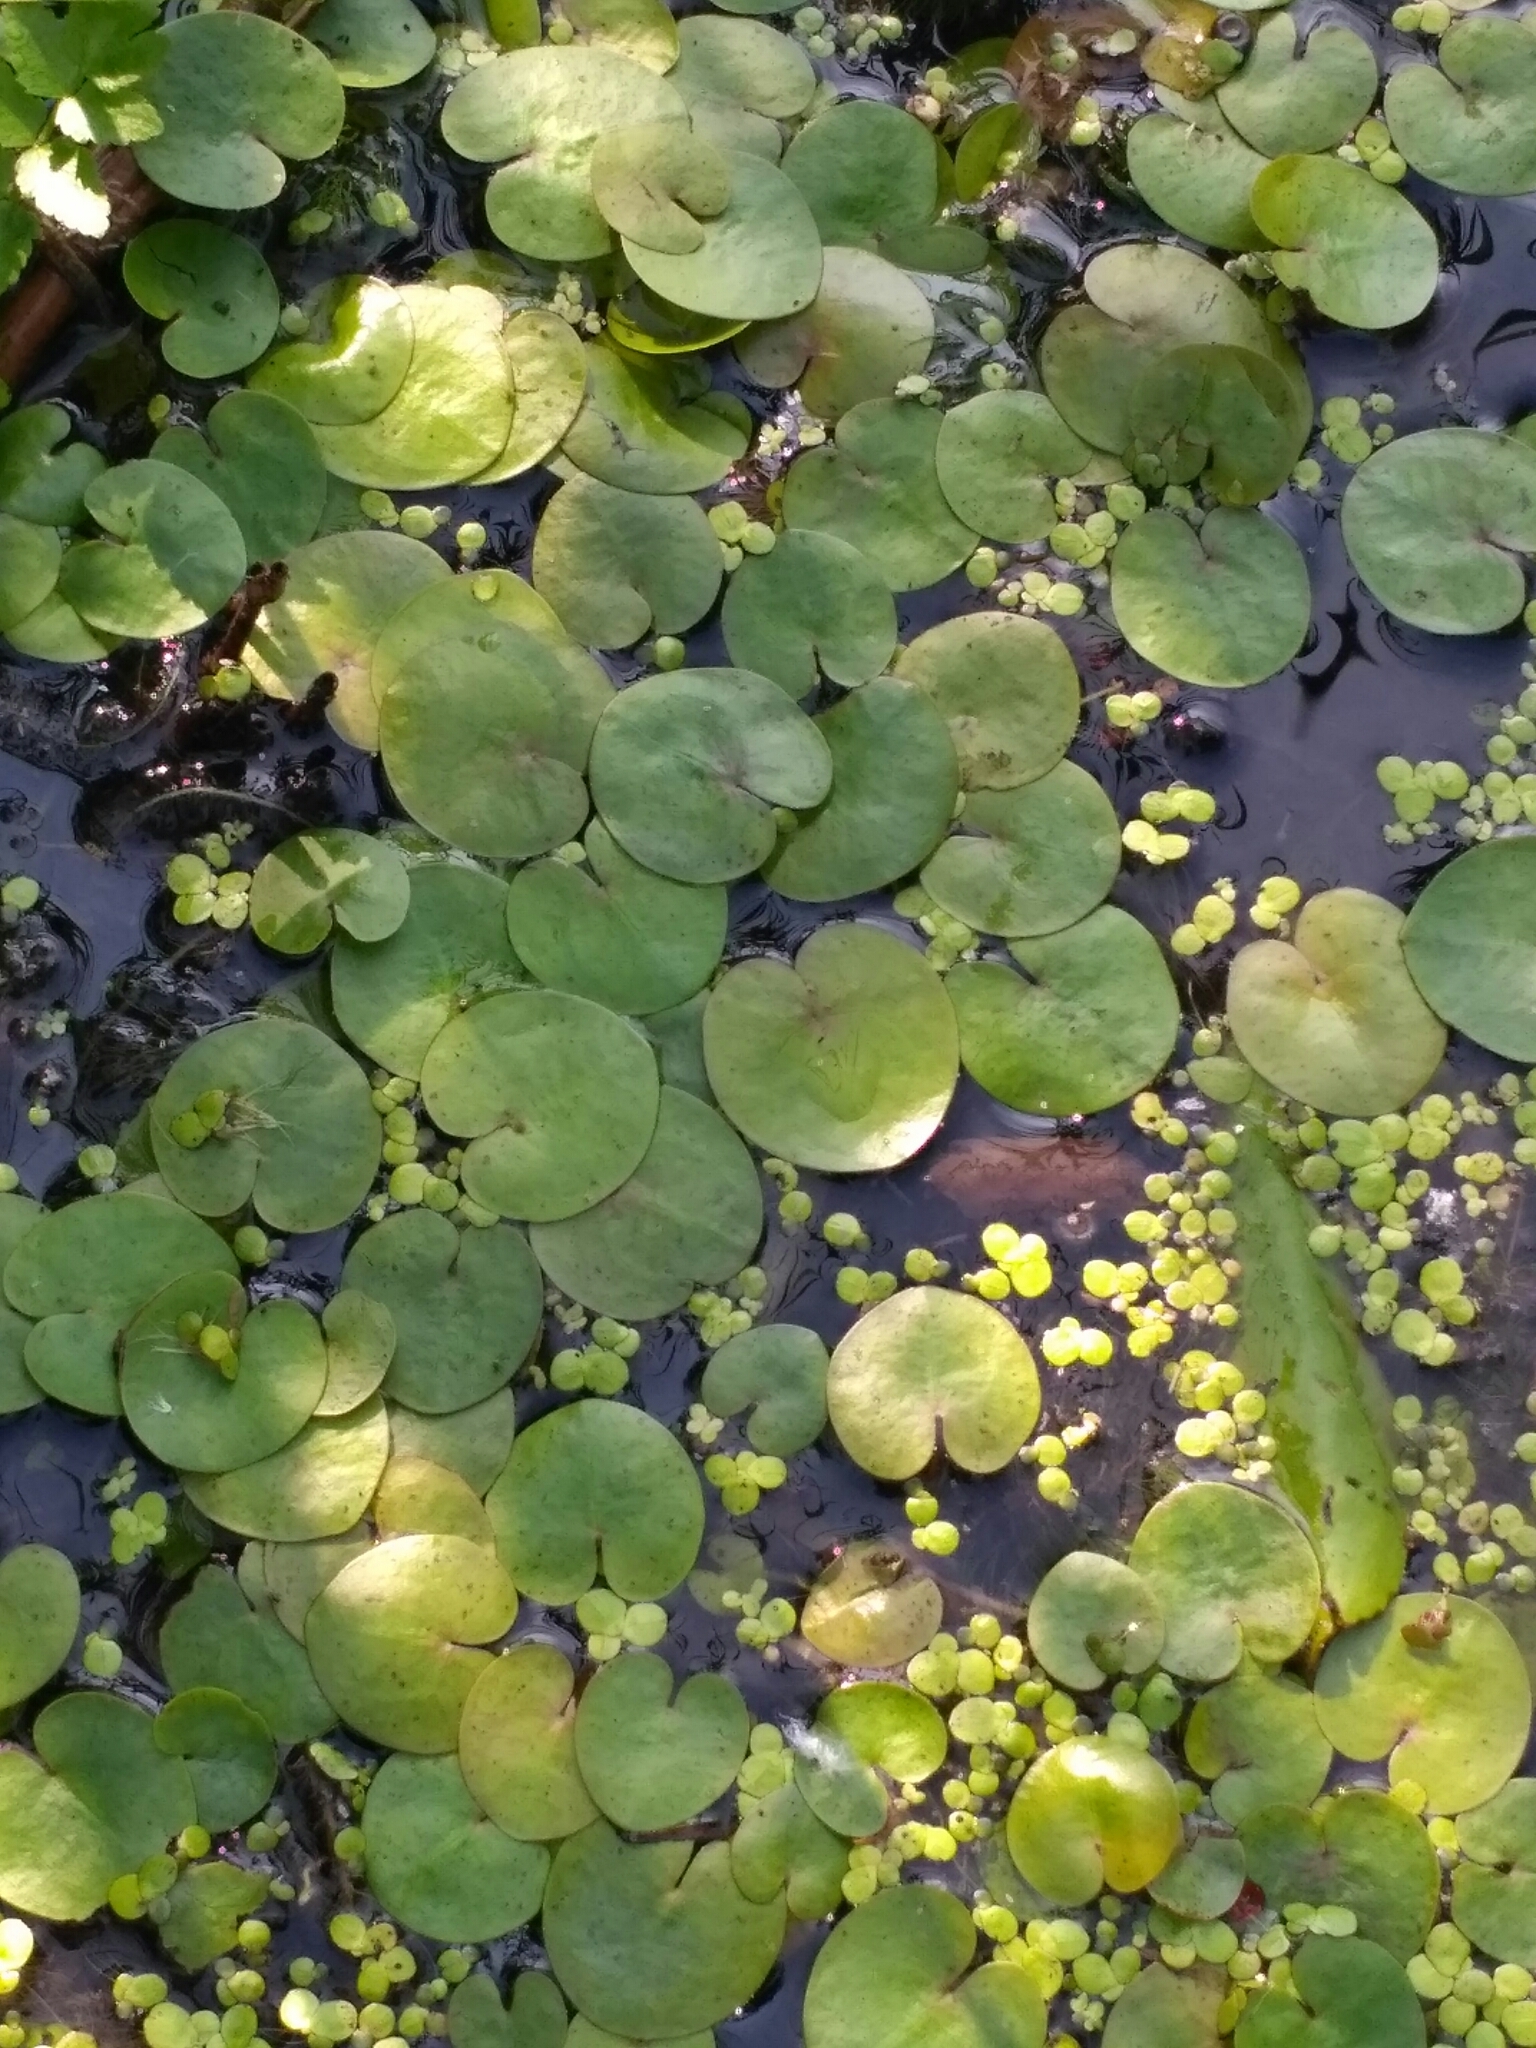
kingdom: Plantae
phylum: Tracheophyta
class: Liliopsida
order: Alismatales
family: Hydrocharitaceae
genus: Hydrocharis
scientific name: Hydrocharis morsus-ranae
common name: Frogbit
